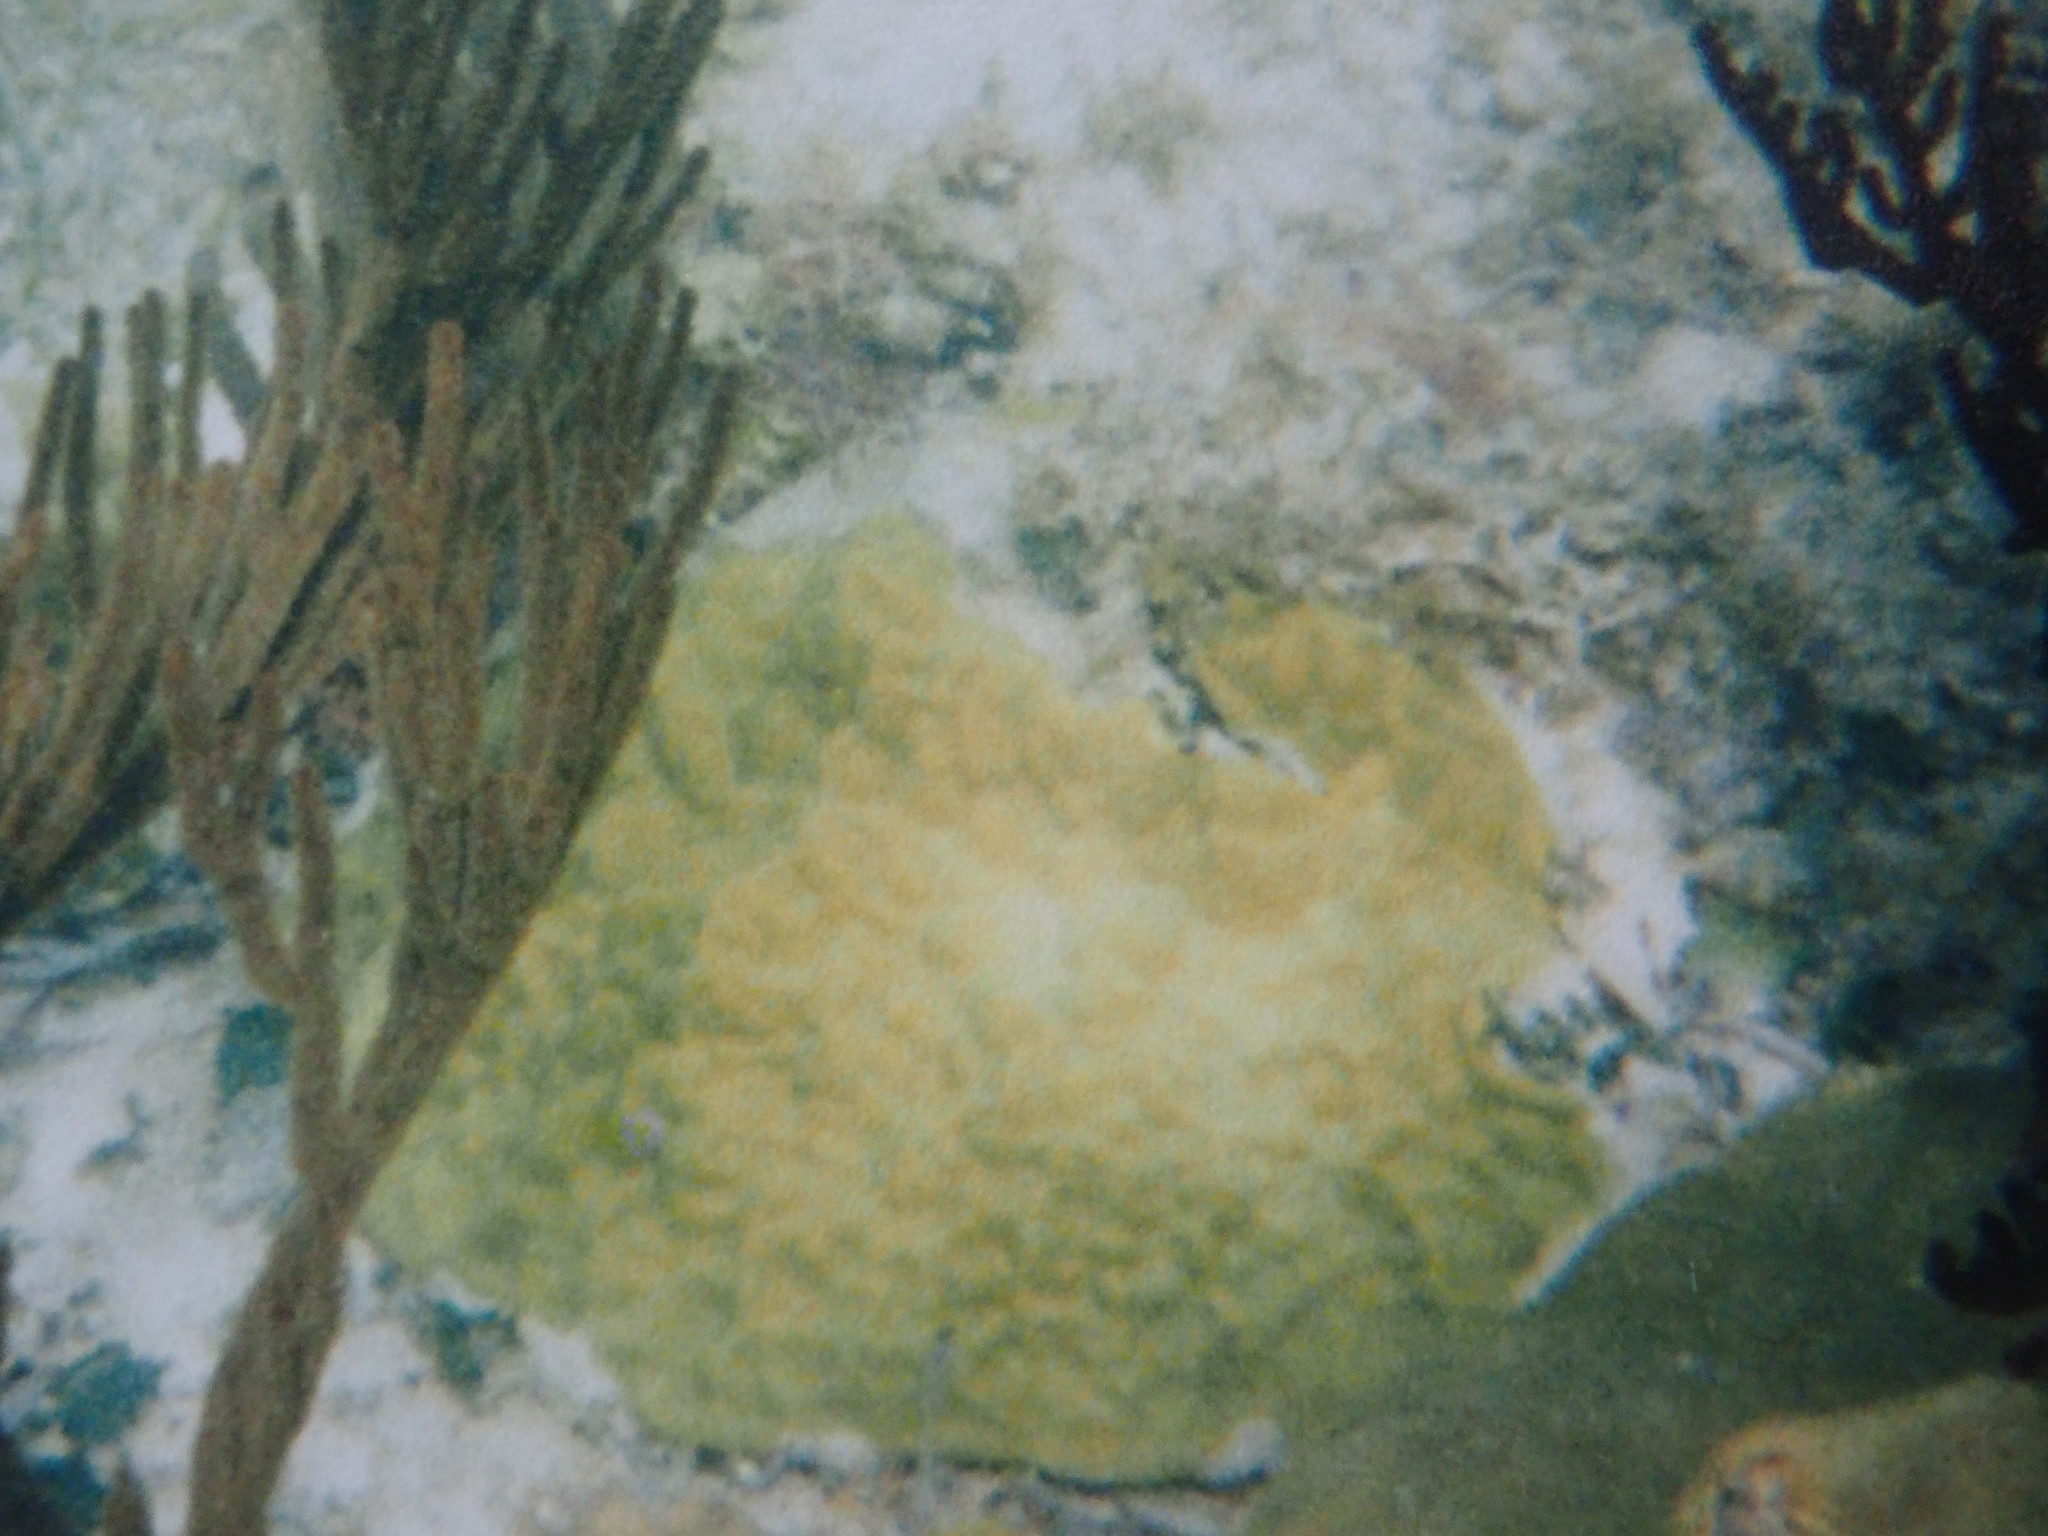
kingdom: Animalia
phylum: Cnidaria
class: Anthozoa
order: Scleractinia
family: Poritidae
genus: Porites
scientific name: Porites astreoides
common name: Mustard hill coral
